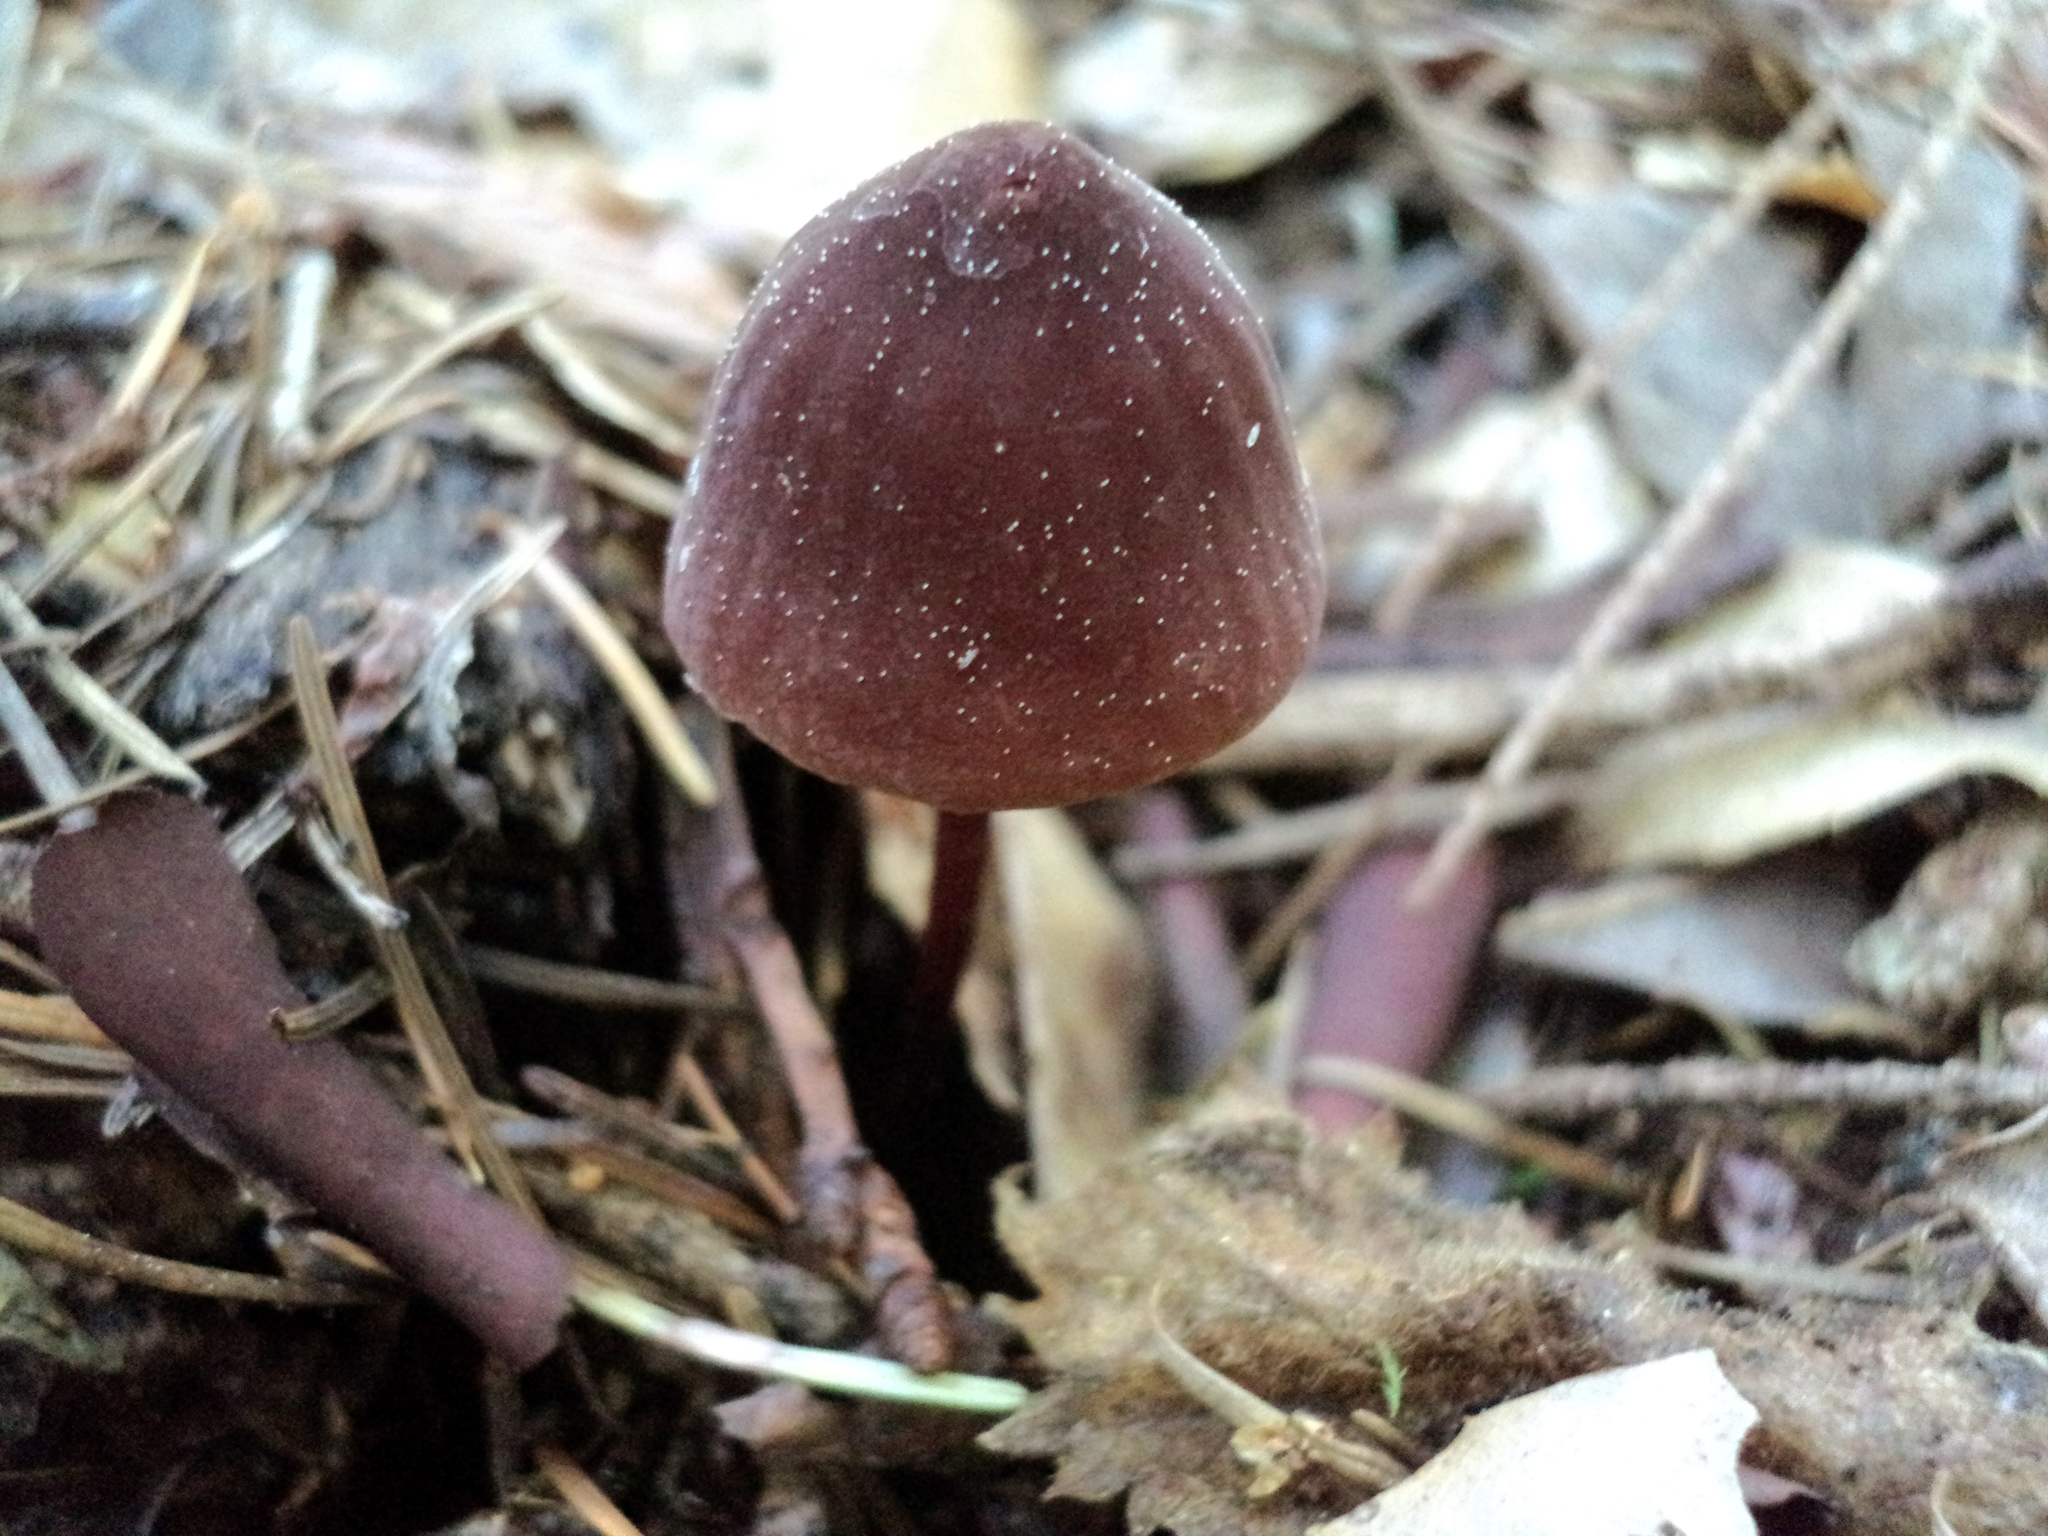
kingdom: Fungi
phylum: Basidiomycota
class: Agaricomycetes
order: Agaricales
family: Marasmiaceae
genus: Marasmius
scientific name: Marasmius plicatulus
